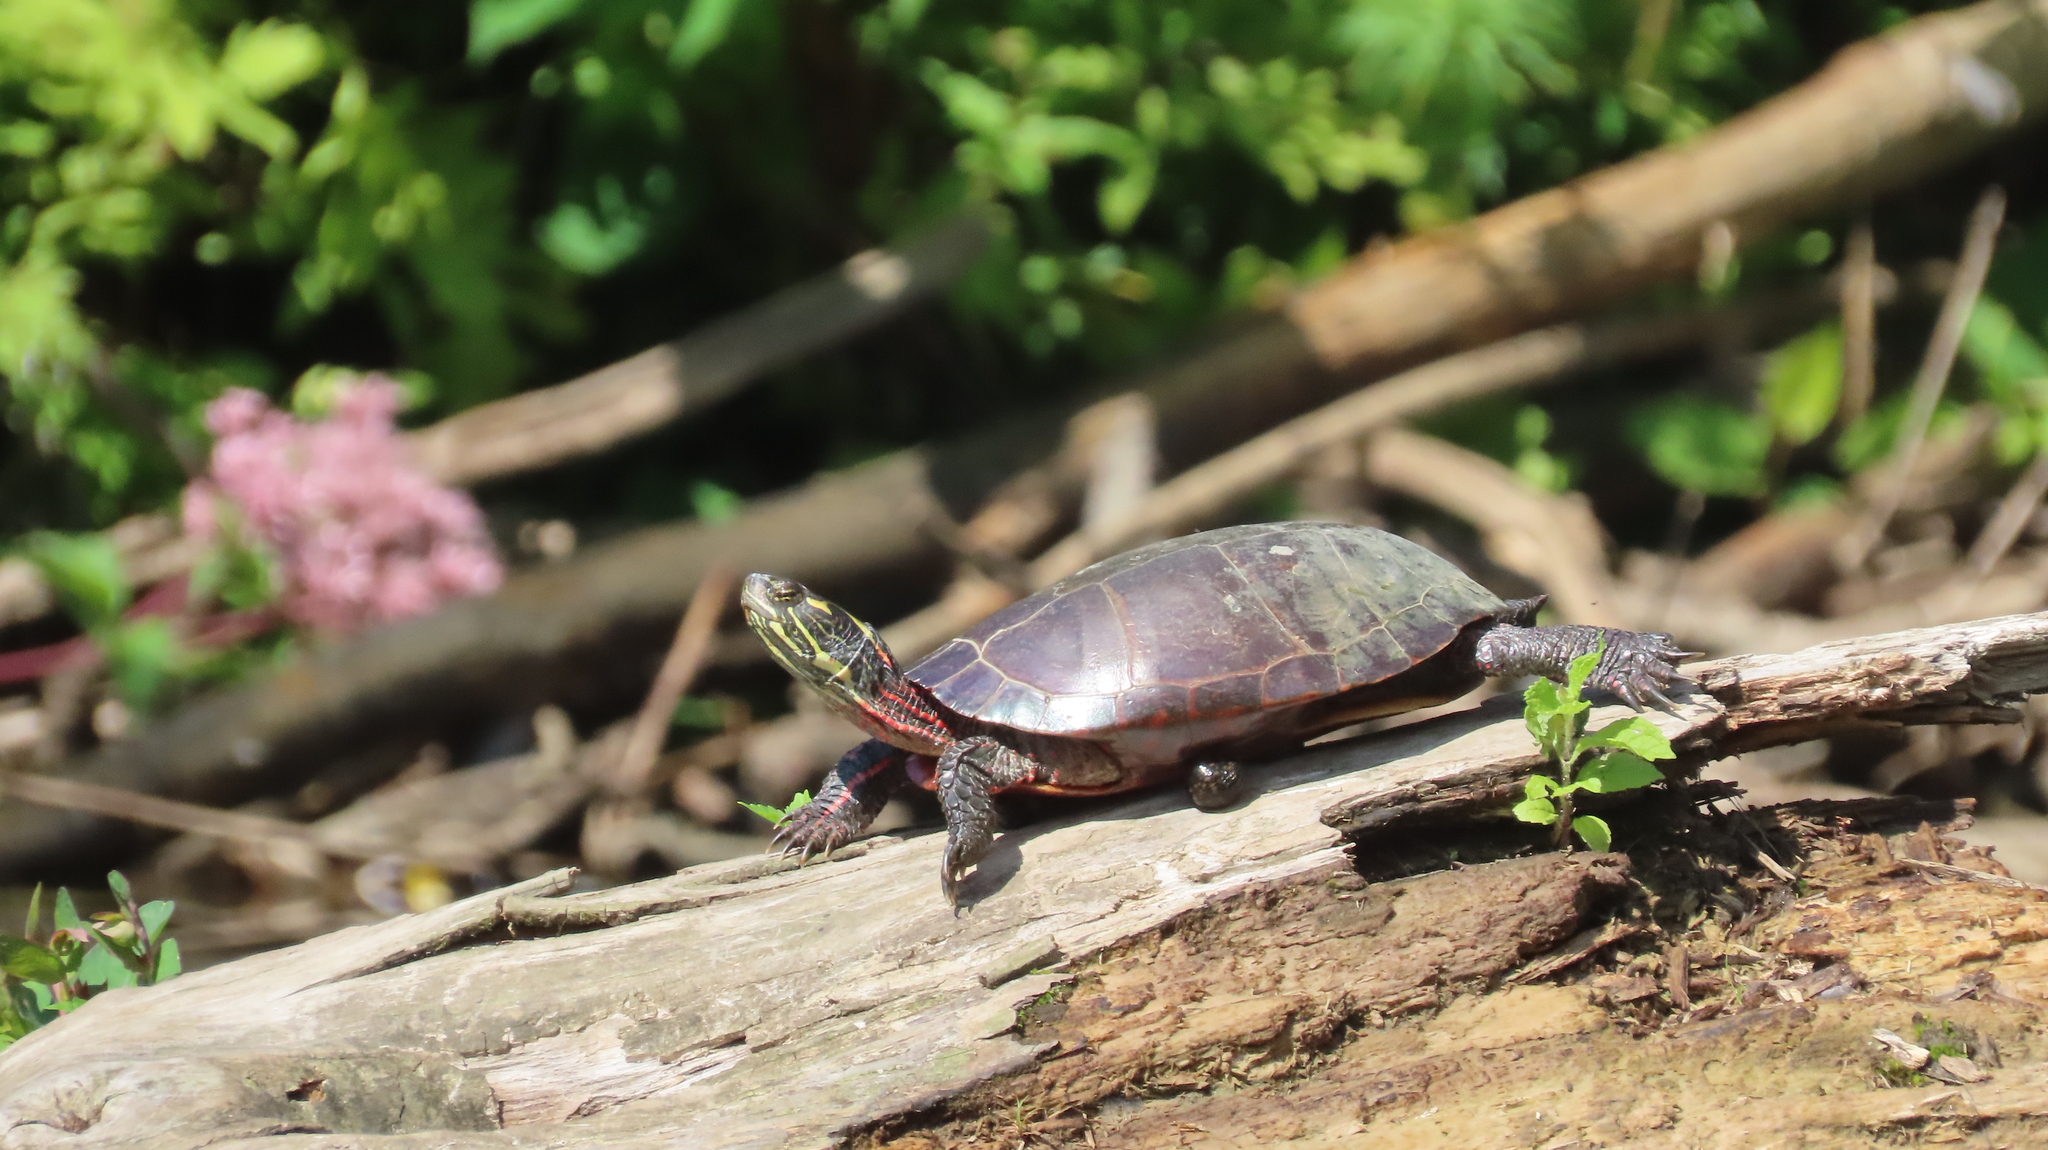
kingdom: Animalia
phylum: Chordata
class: Testudines
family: Emydidae
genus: Chrysemys
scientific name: Chrysemys picta
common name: Painted turtle
